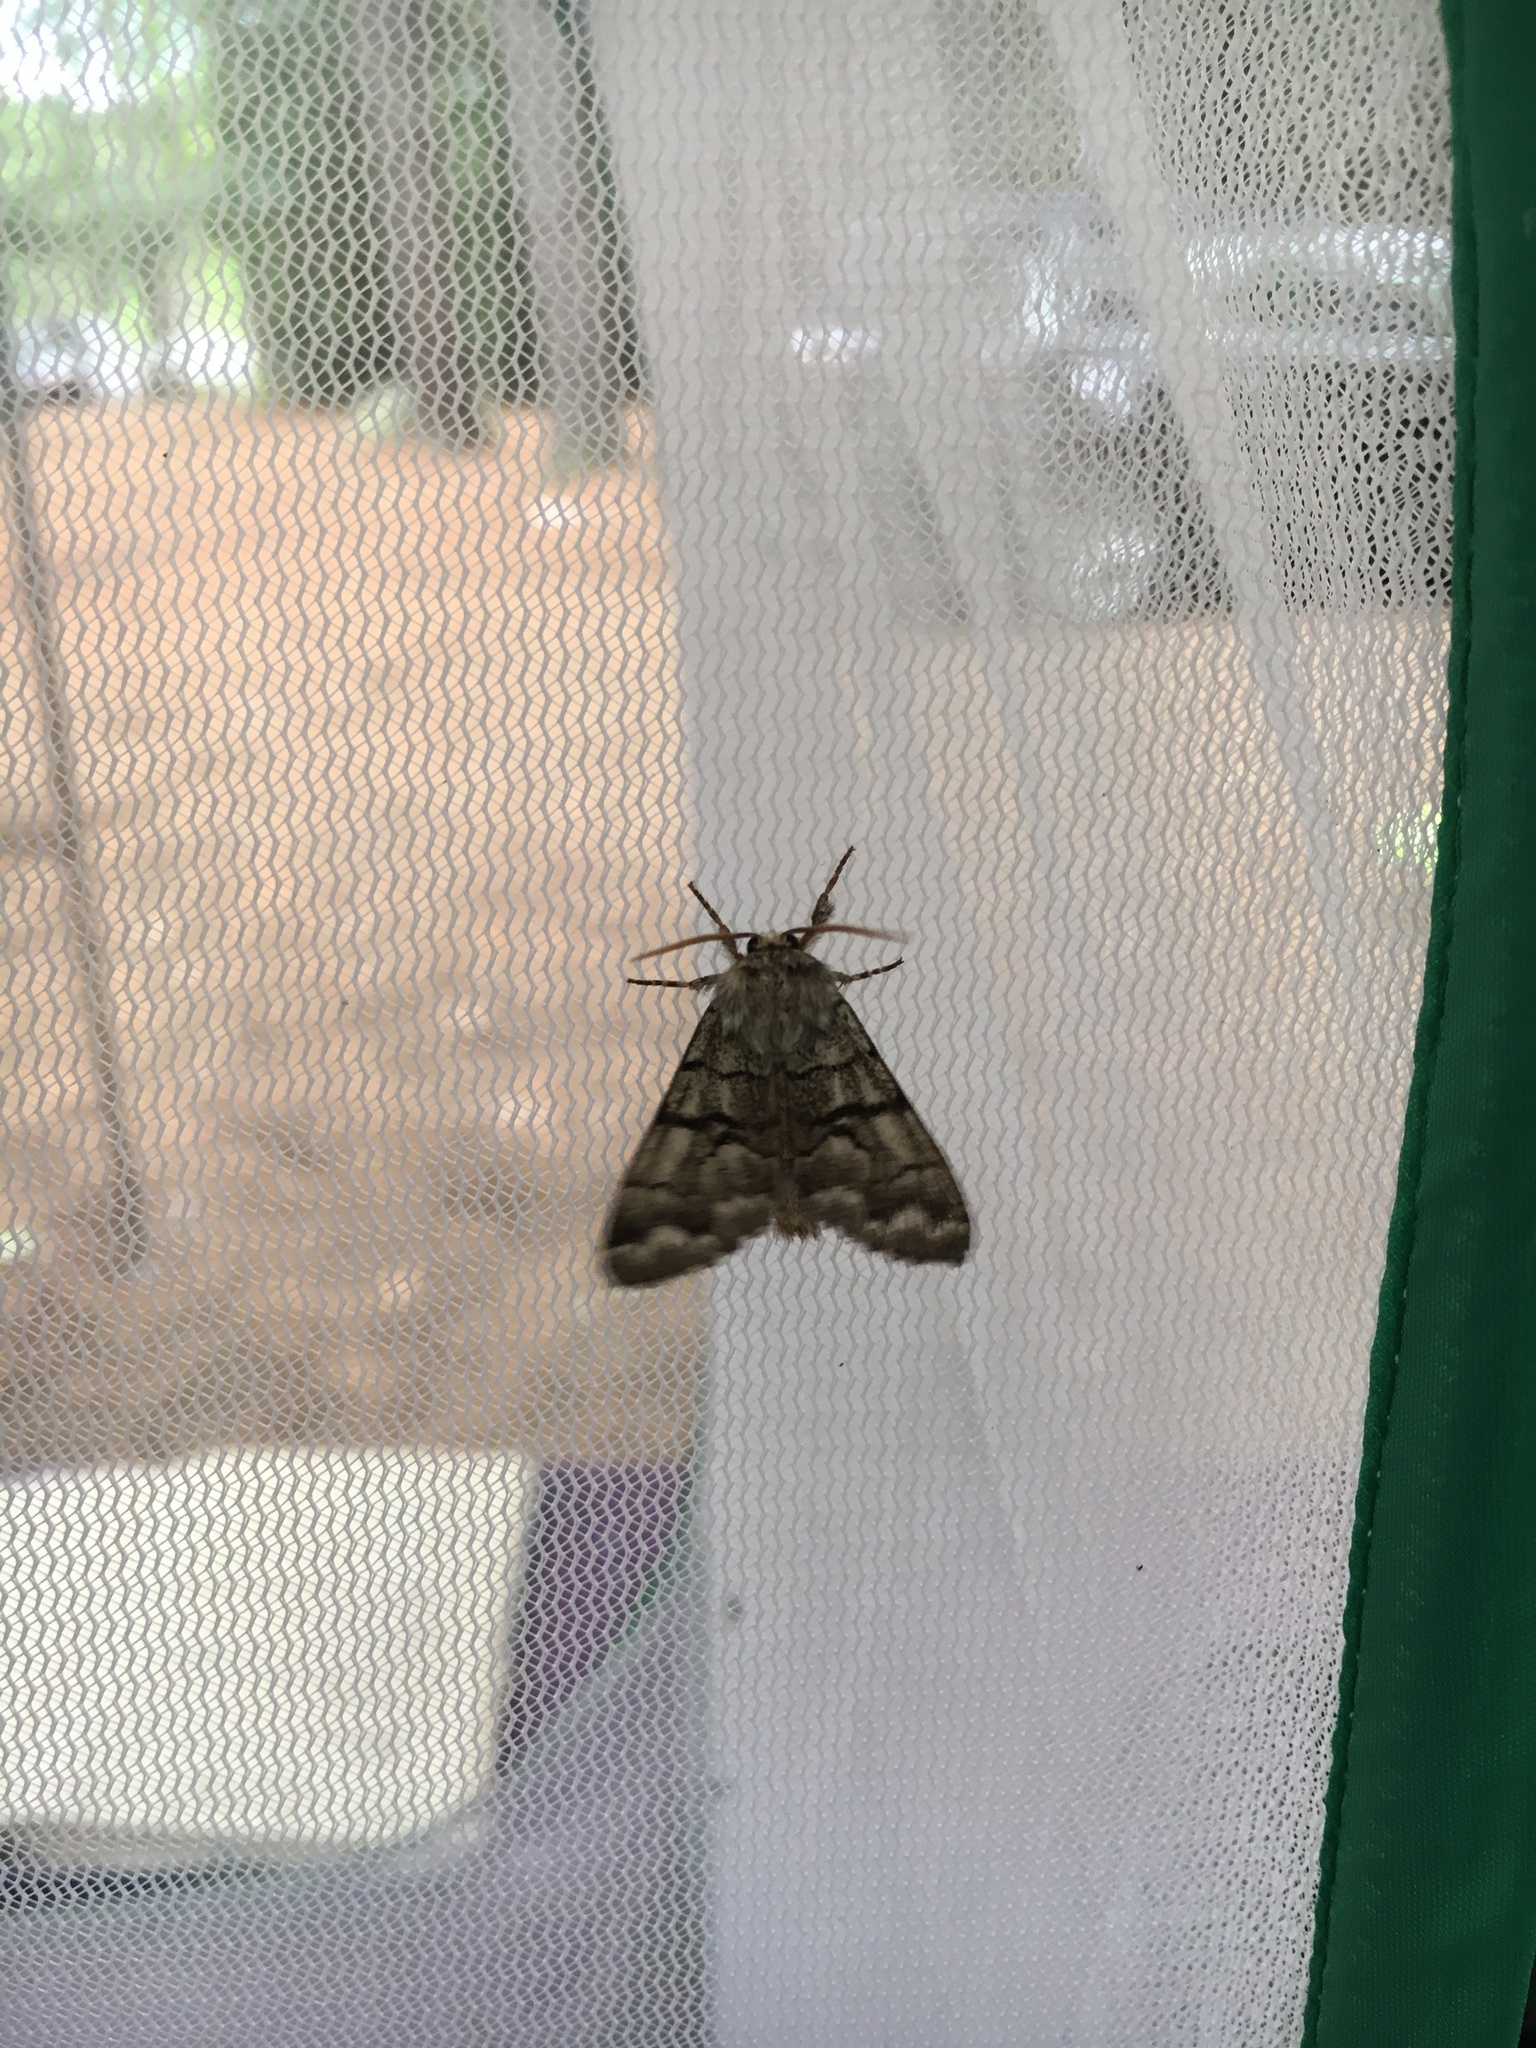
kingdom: Animalia
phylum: Arthropoda
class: Insecta
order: Lepidoptera
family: Noctuidae
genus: Panthea
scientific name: Panthea furcilla
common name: Eastern panthea moth
